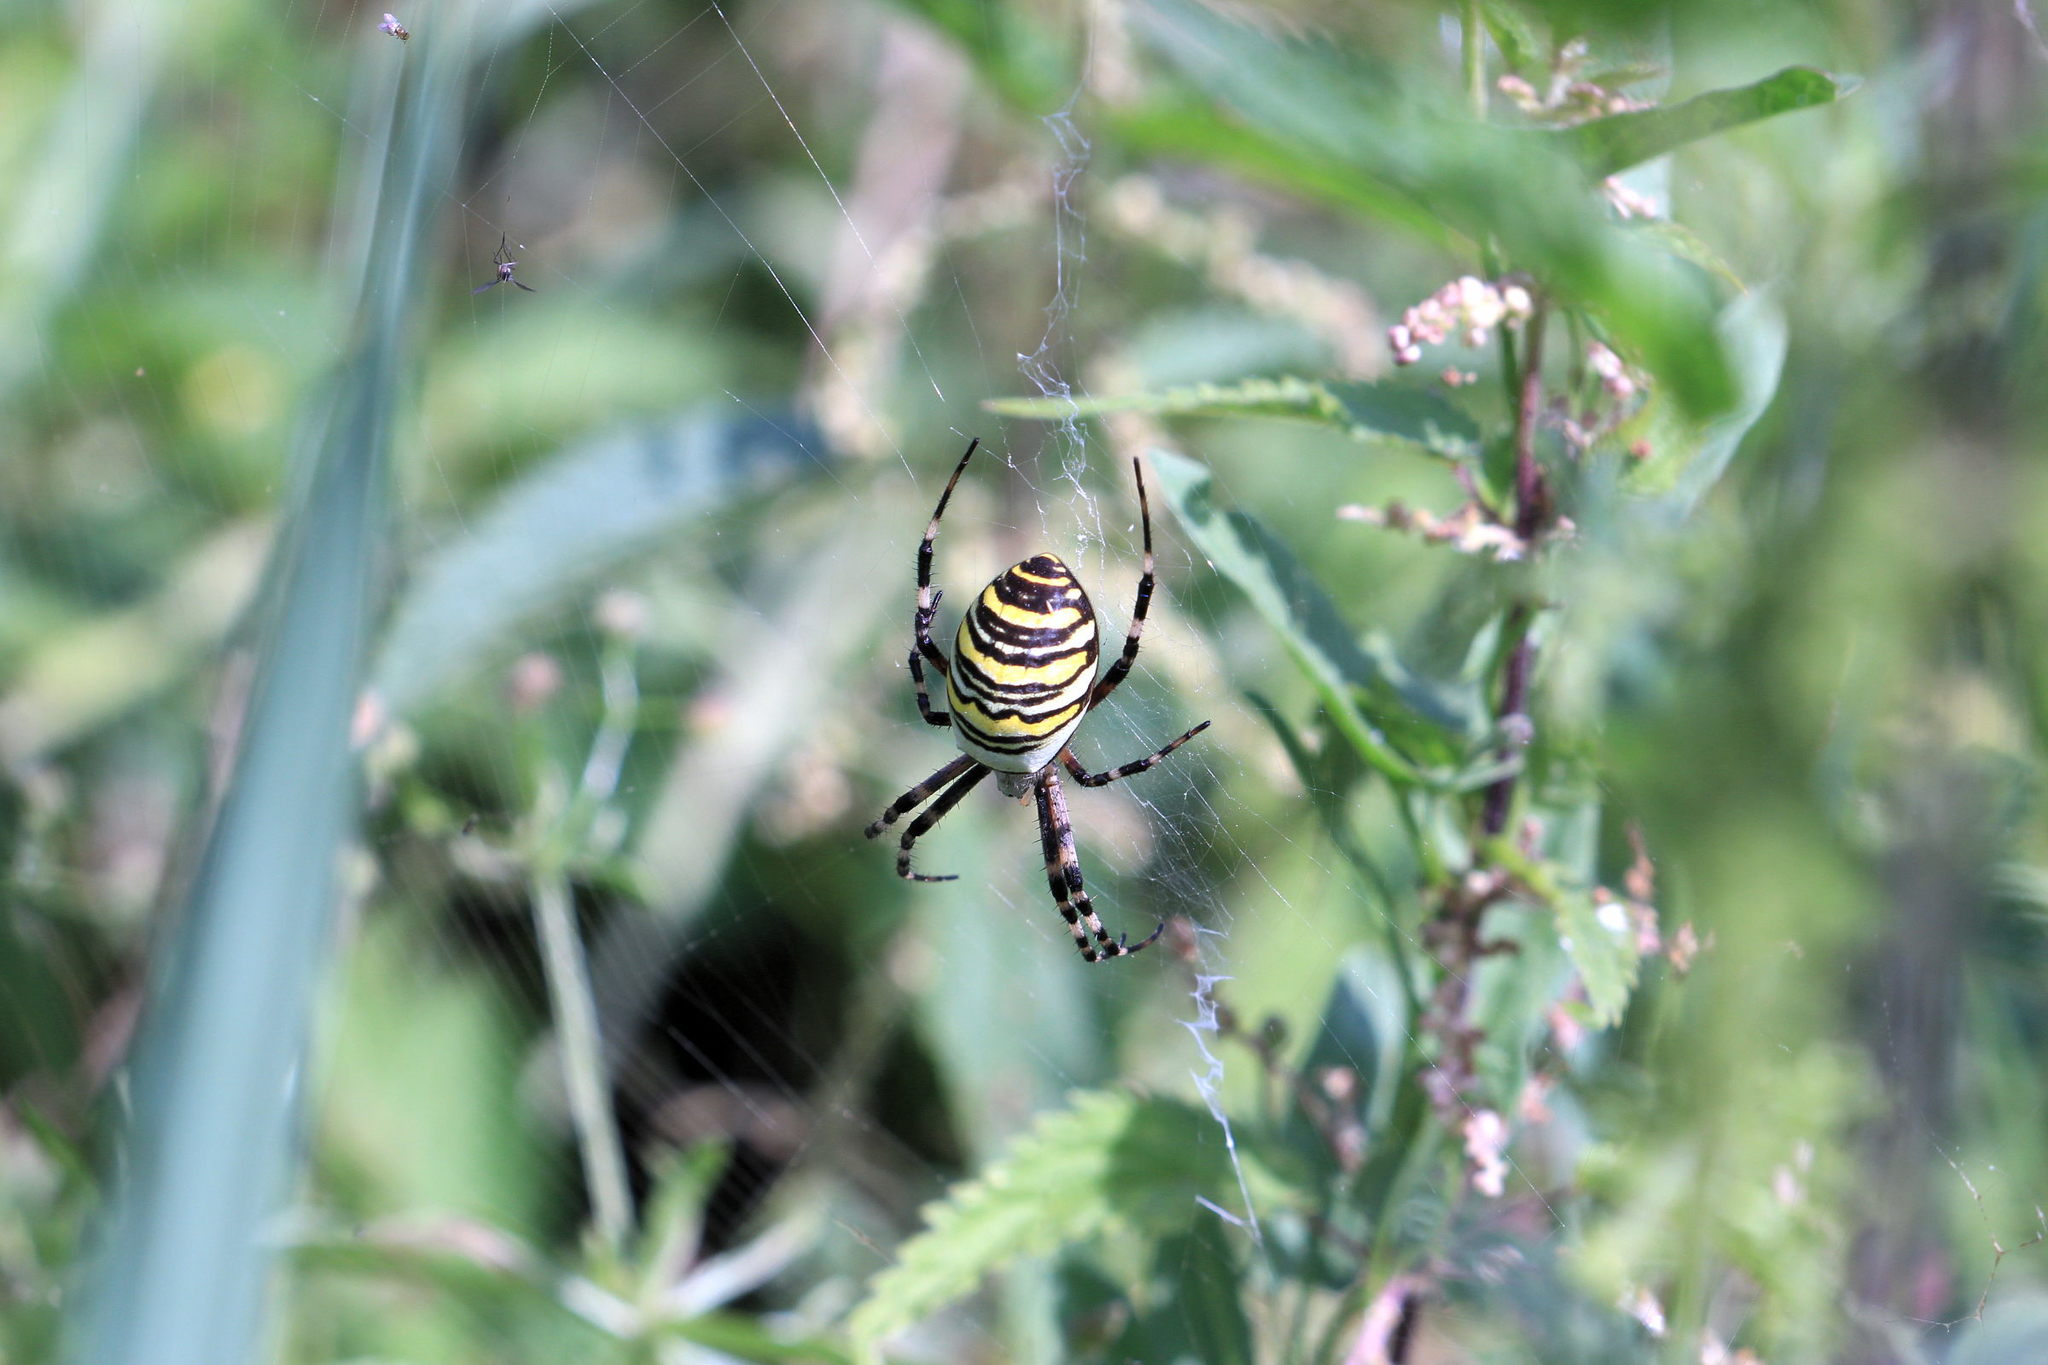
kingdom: Animalia
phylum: Arthropoda
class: Arachnida
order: Araneae
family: Araneidae
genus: Argiope
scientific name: Argiope bruennichi
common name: Wasp spider
